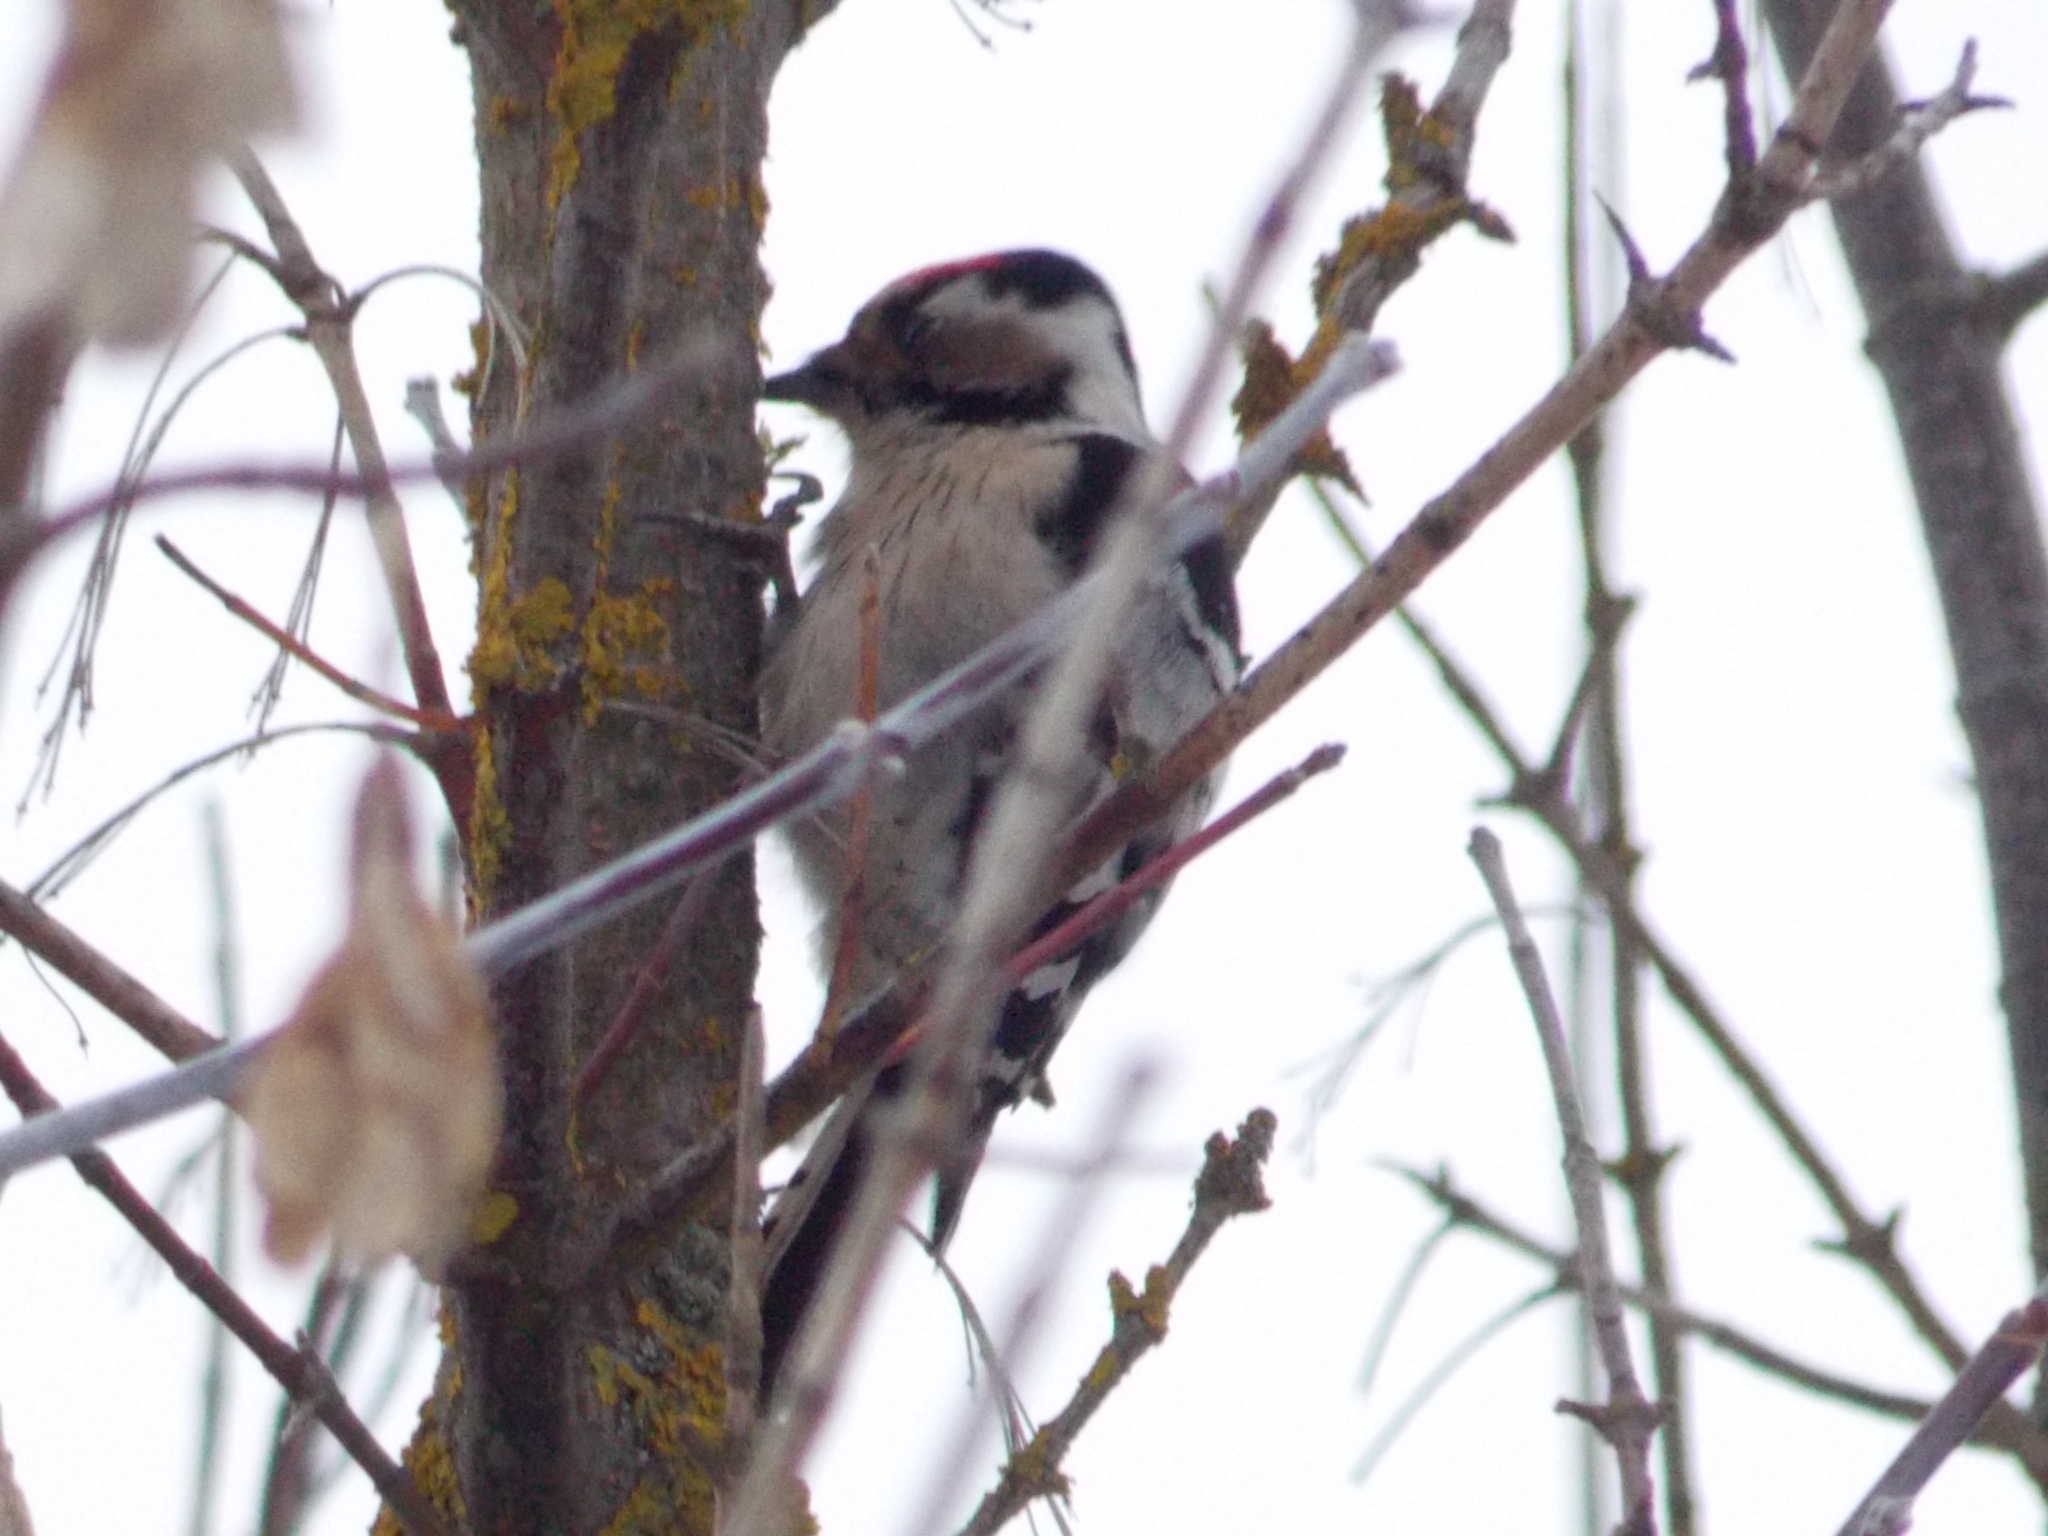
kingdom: Animalia
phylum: Chordata
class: Aves
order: Piciformes
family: Picidae
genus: Dryobates
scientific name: Dryobates minor
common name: Lesser spotted woodpecker
